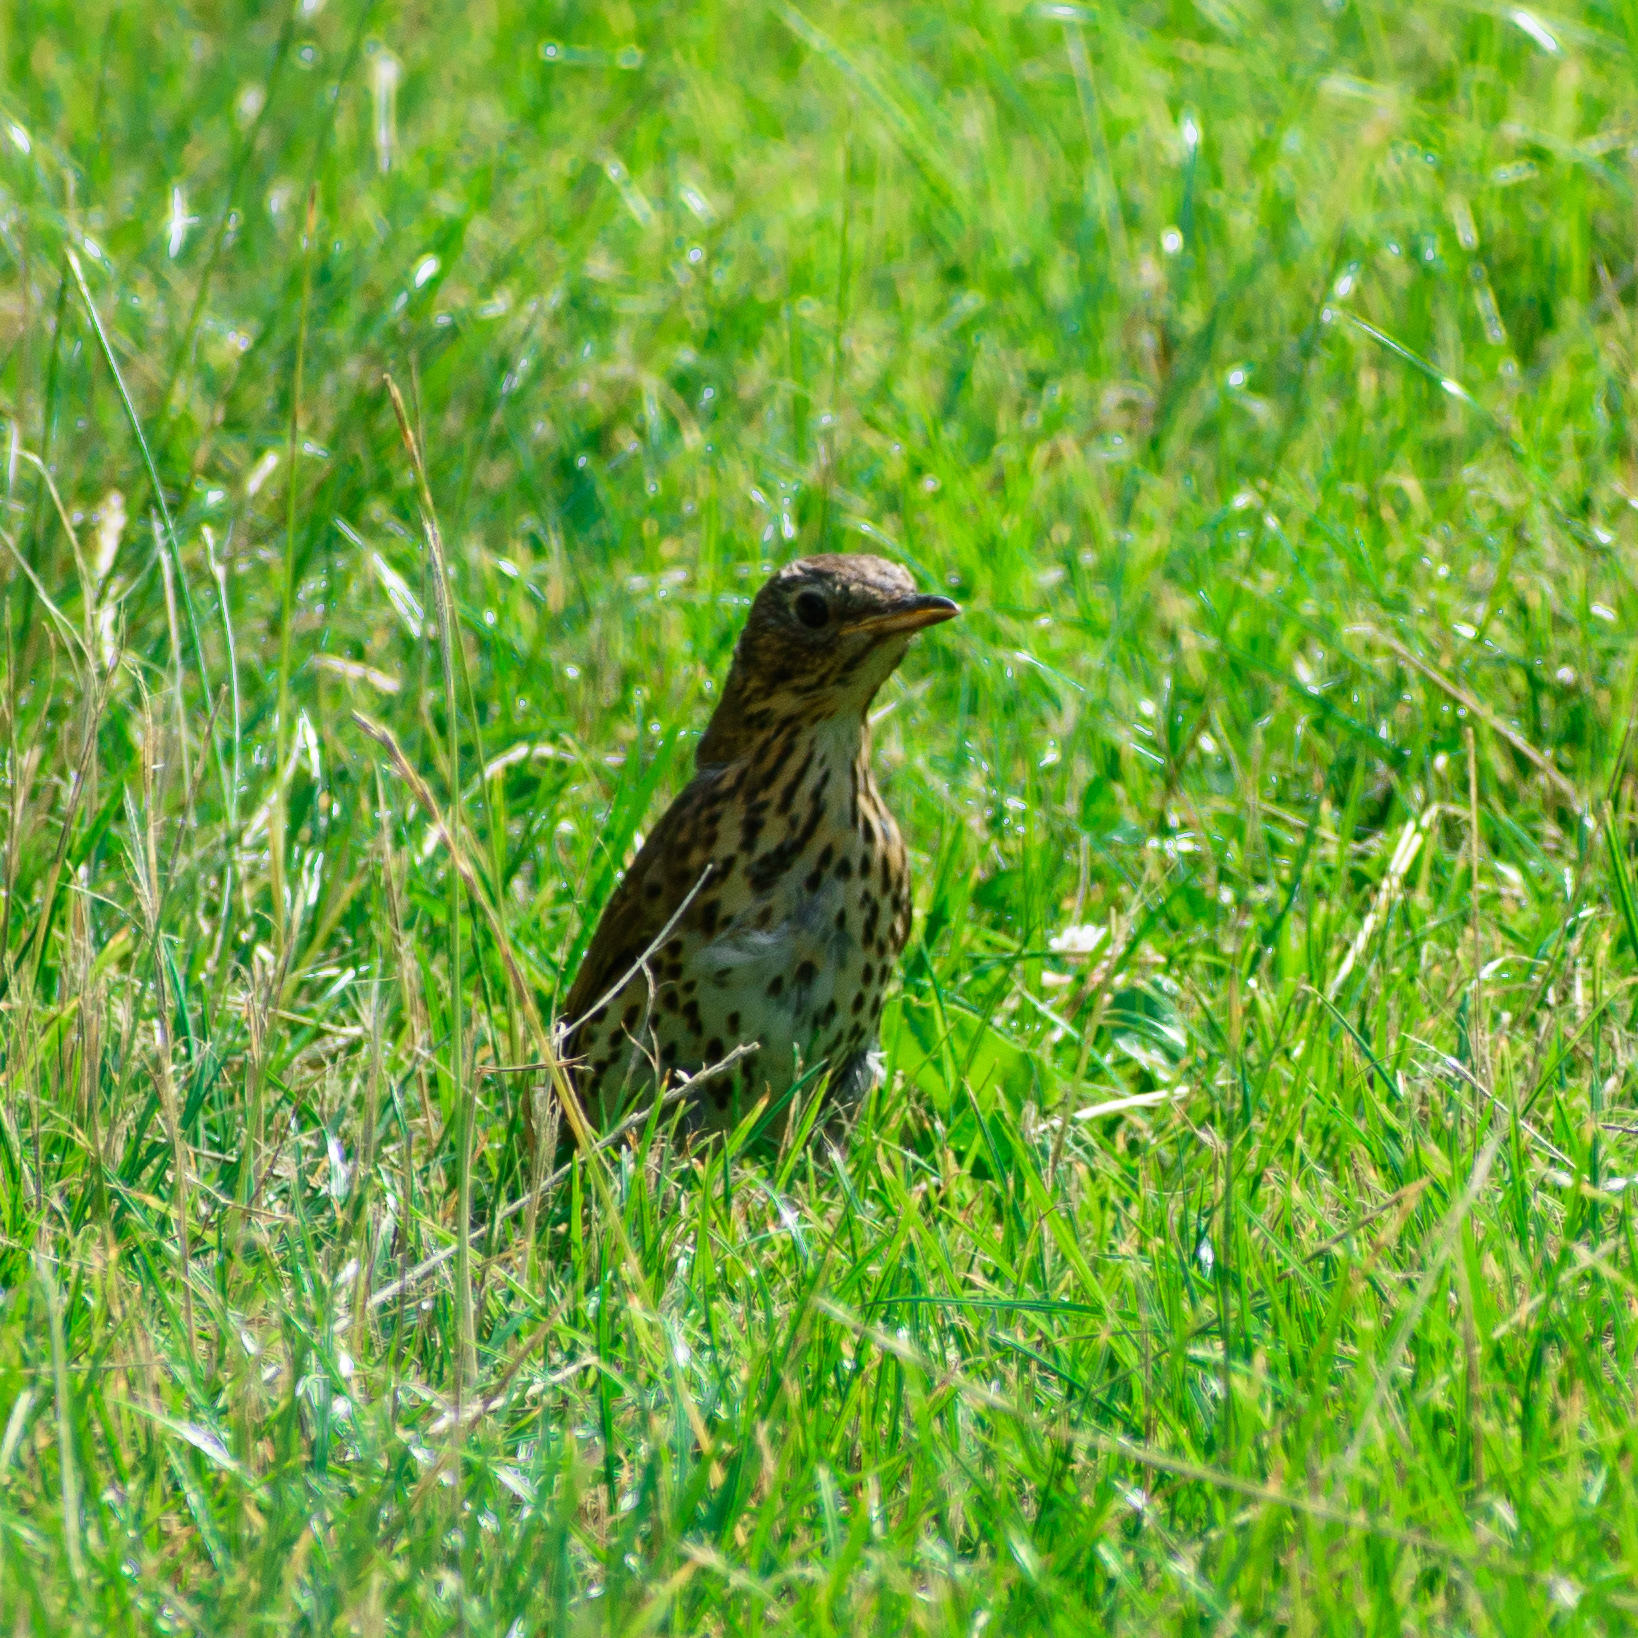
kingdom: Animalia
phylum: Chordata
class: Aves
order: Passeriformes
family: Turdidae
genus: Turdus
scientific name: Turdus philomelos
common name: Song thrush
